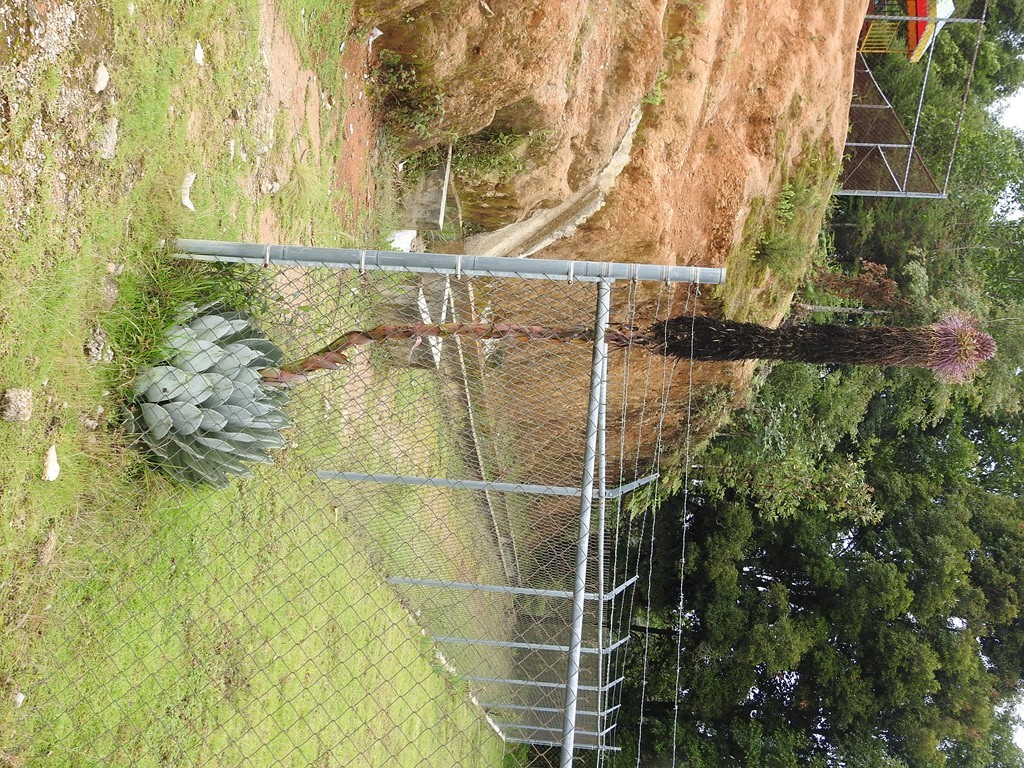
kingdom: Plantae
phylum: Tracheophyta
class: Liliopsida
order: Asparagales
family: Asparagaceae
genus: Agave
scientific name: Agave chiapensis
